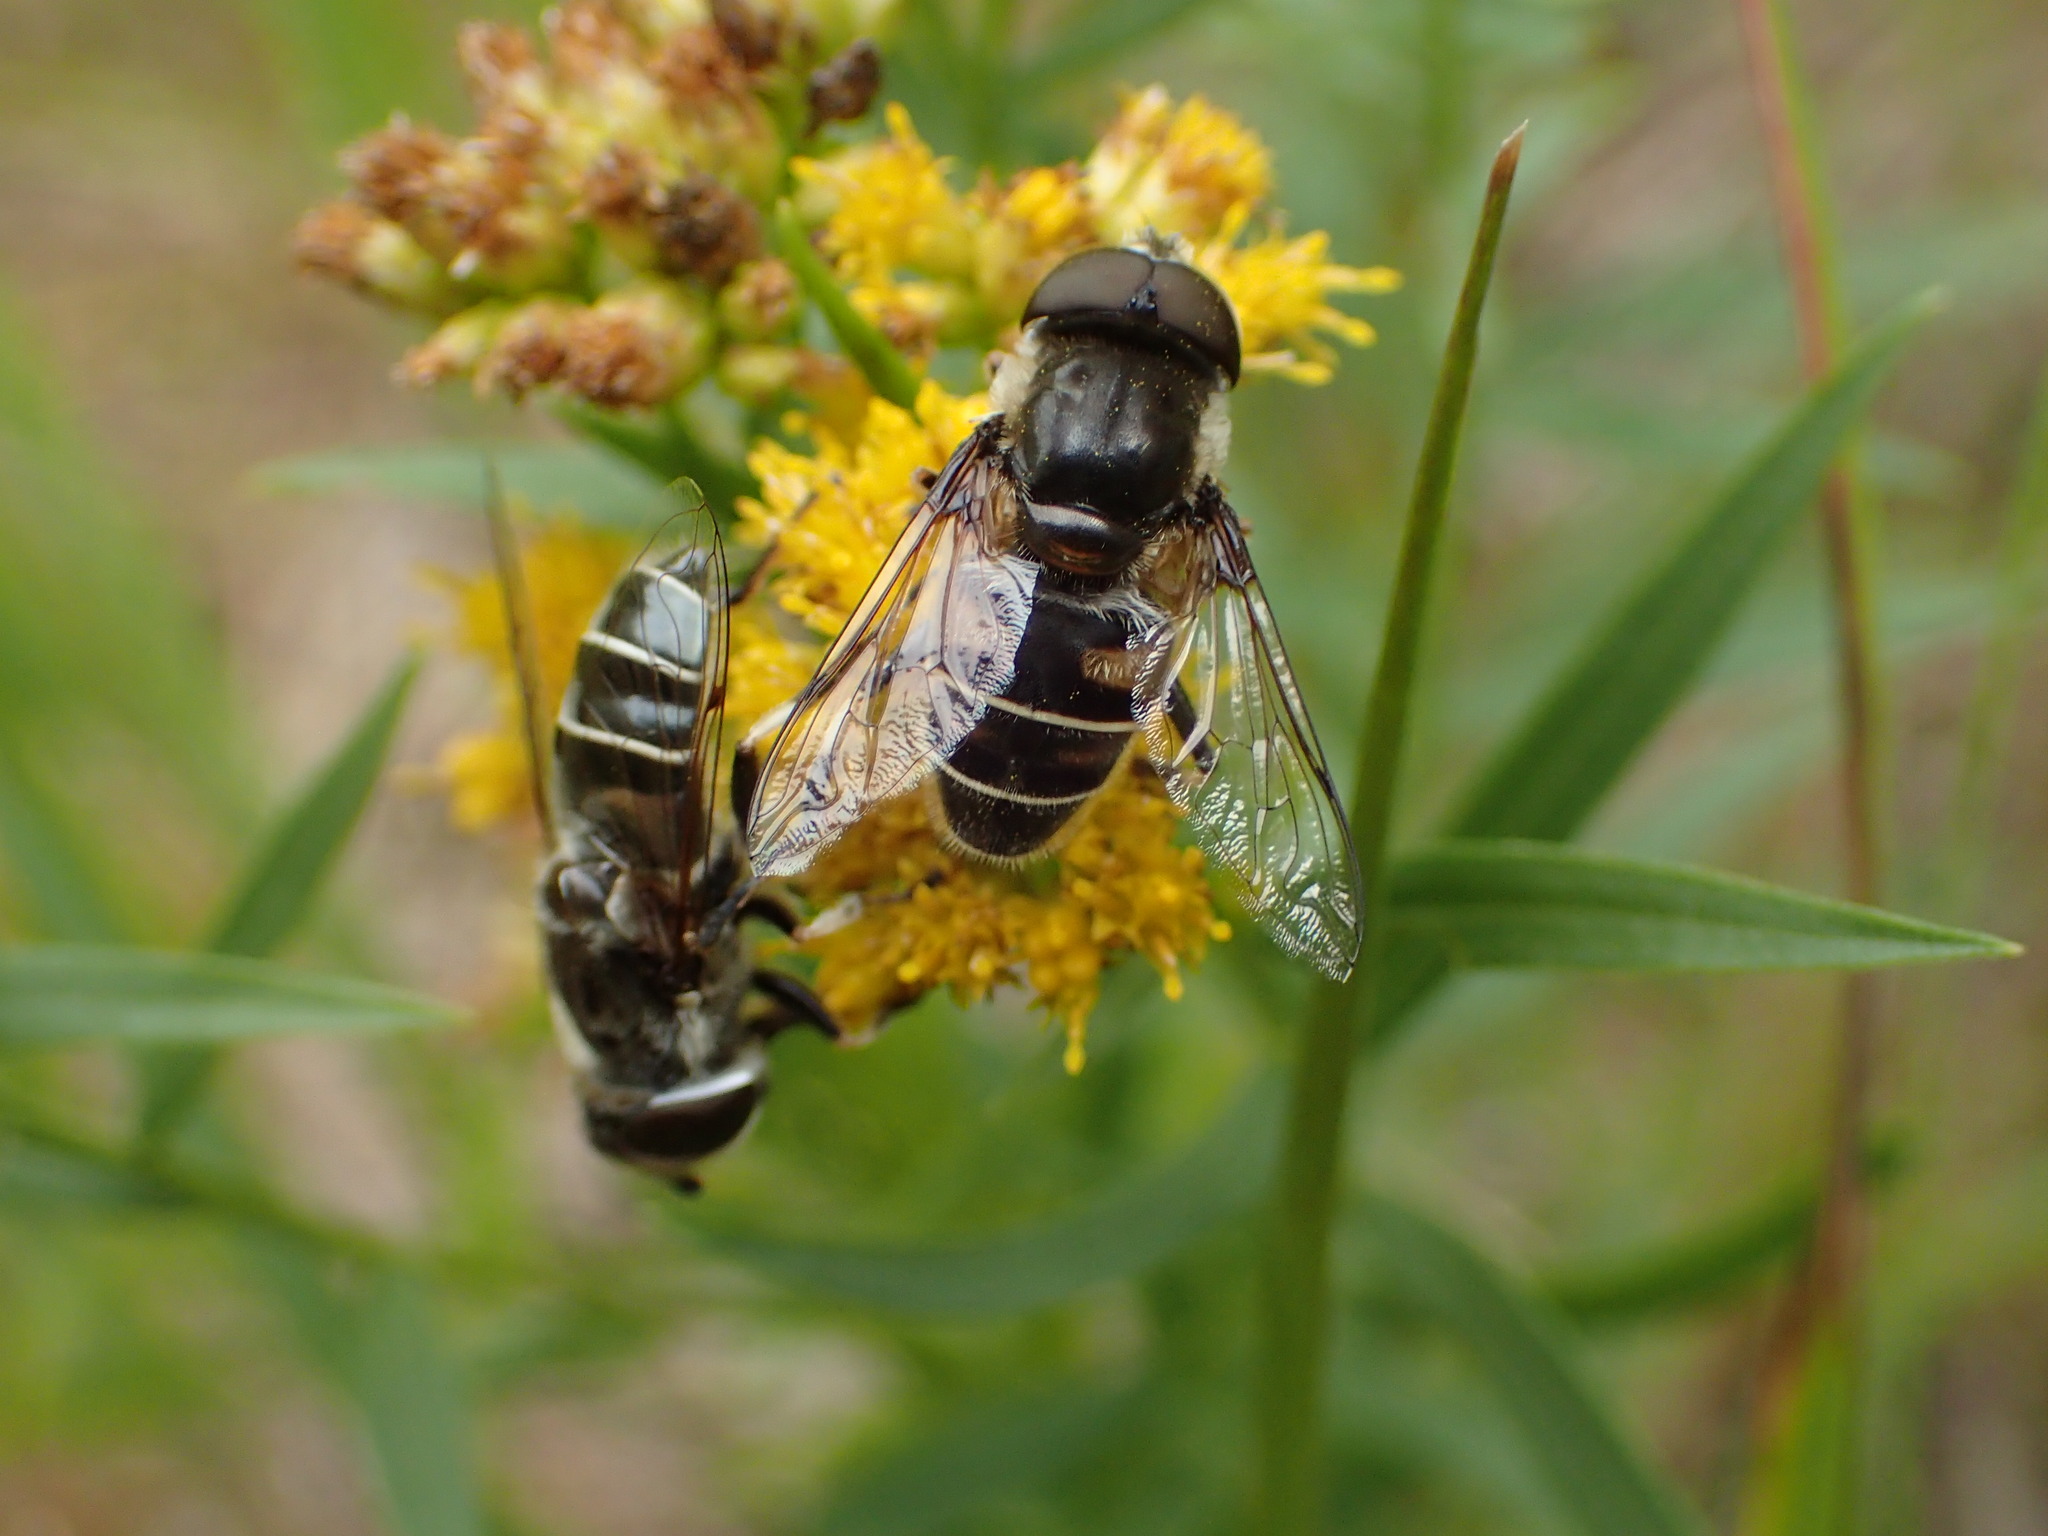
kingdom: Animalia
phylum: Arthropoda
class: Insecta
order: Diptera
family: Syrphidae
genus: Eristalis
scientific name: Eristalis dimidiata
